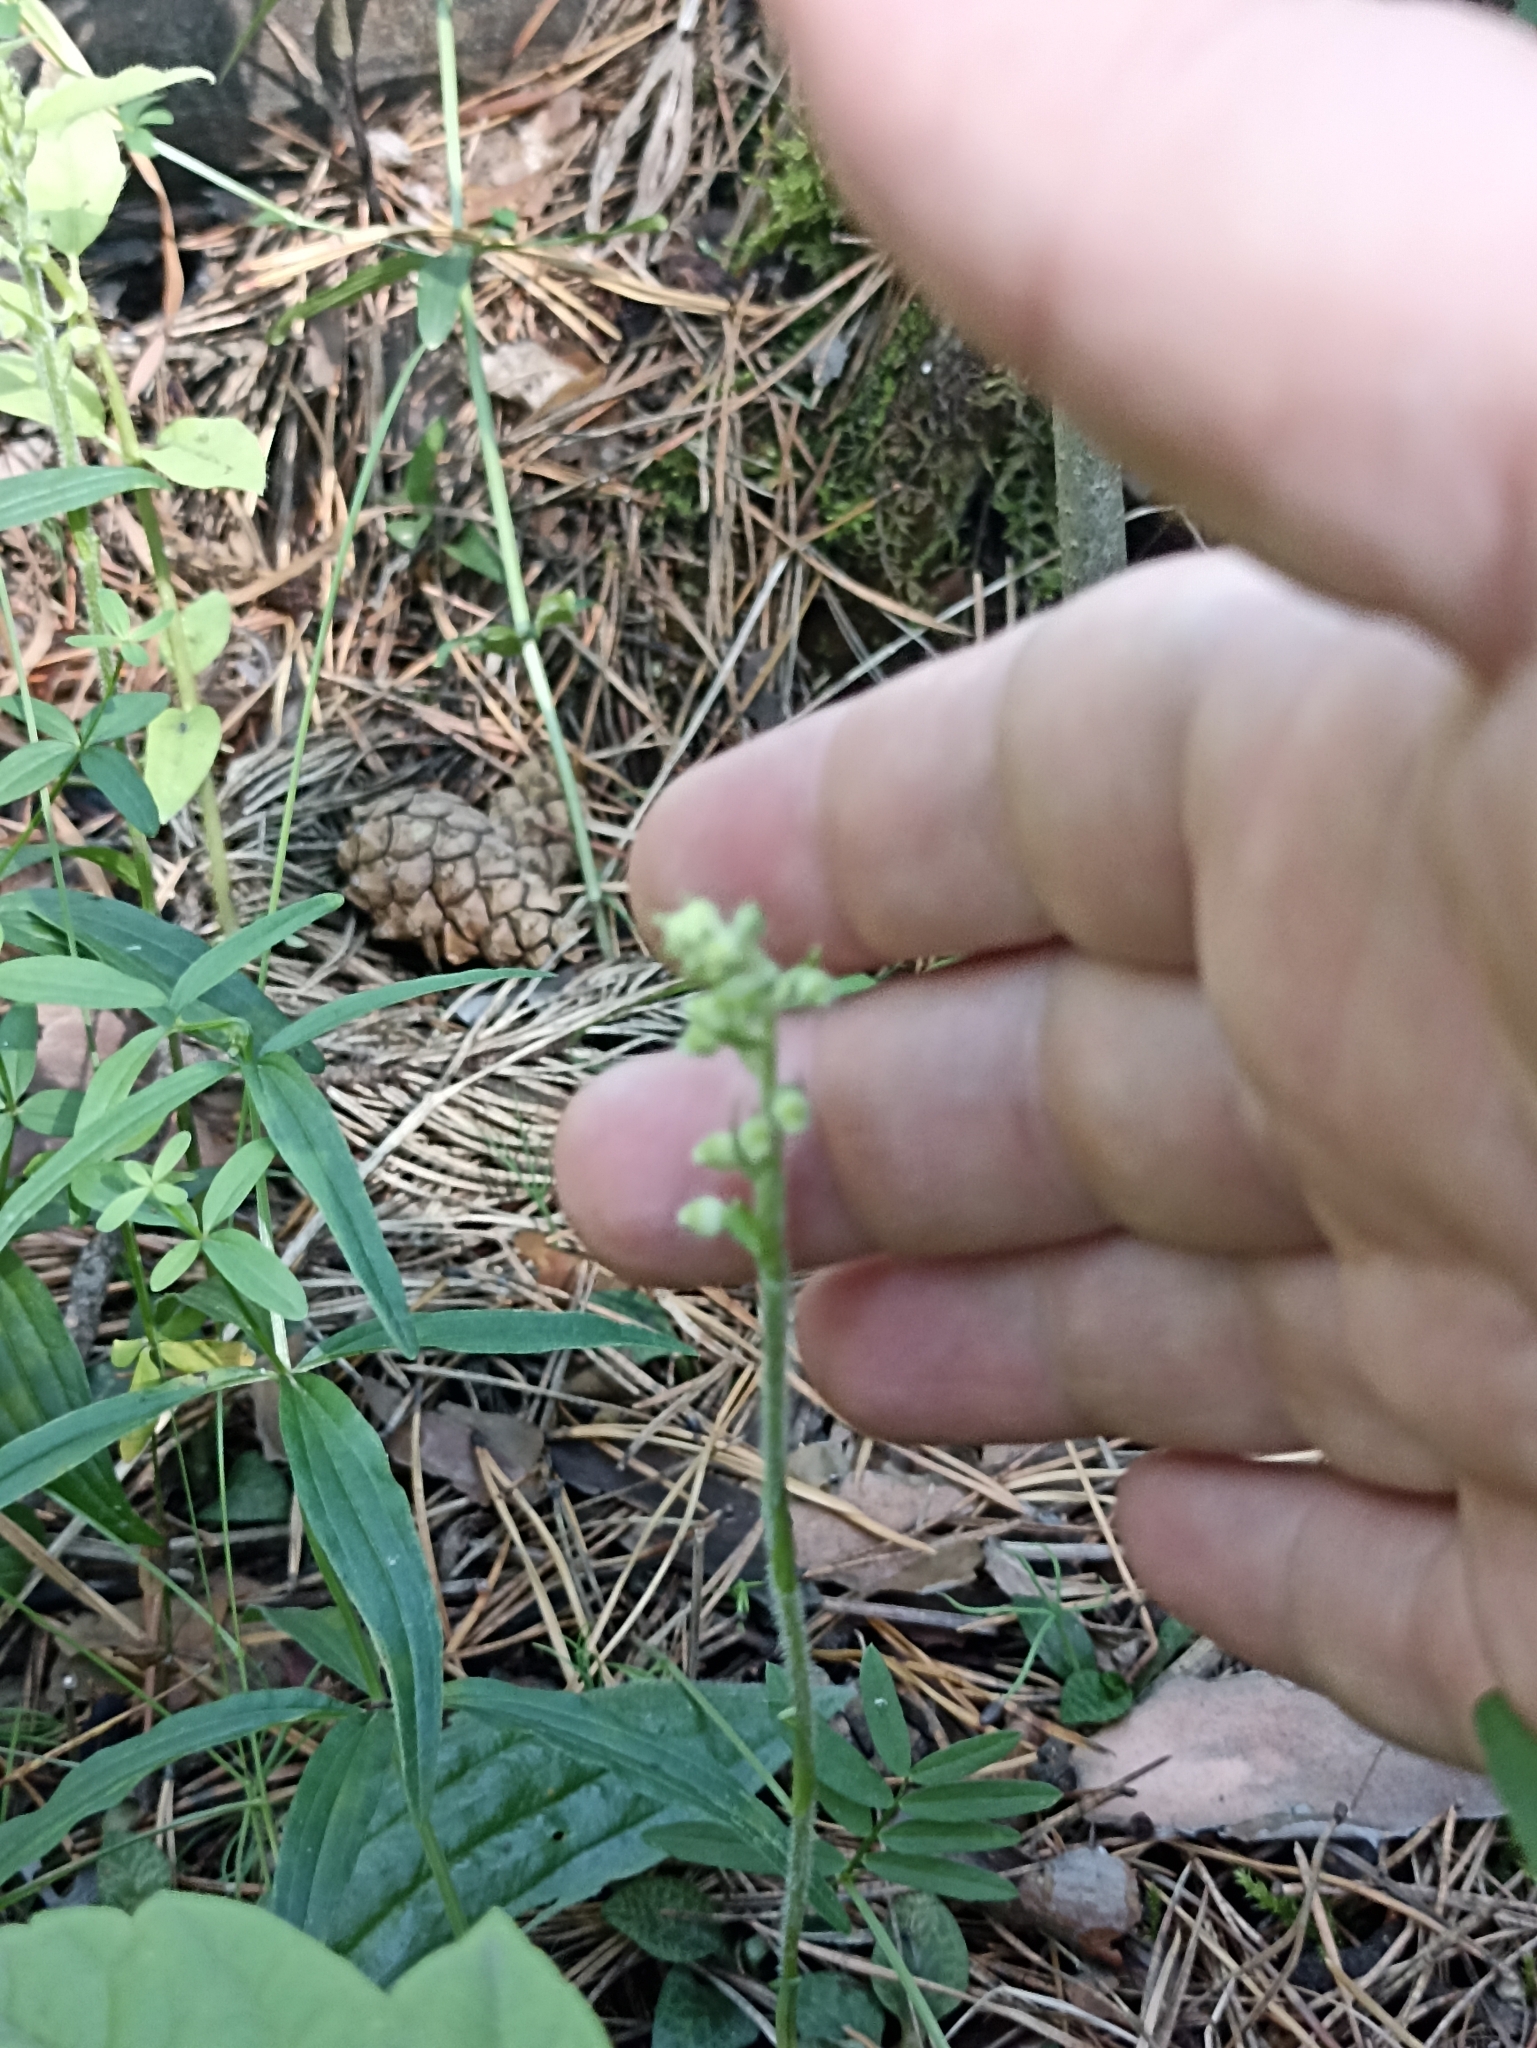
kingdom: Plantae
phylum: Tracheophyta
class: Liliopsida
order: Asparagales
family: Orchidaceae
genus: Goodyera
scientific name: Goodyera repens
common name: Creeping lady's-tresses
